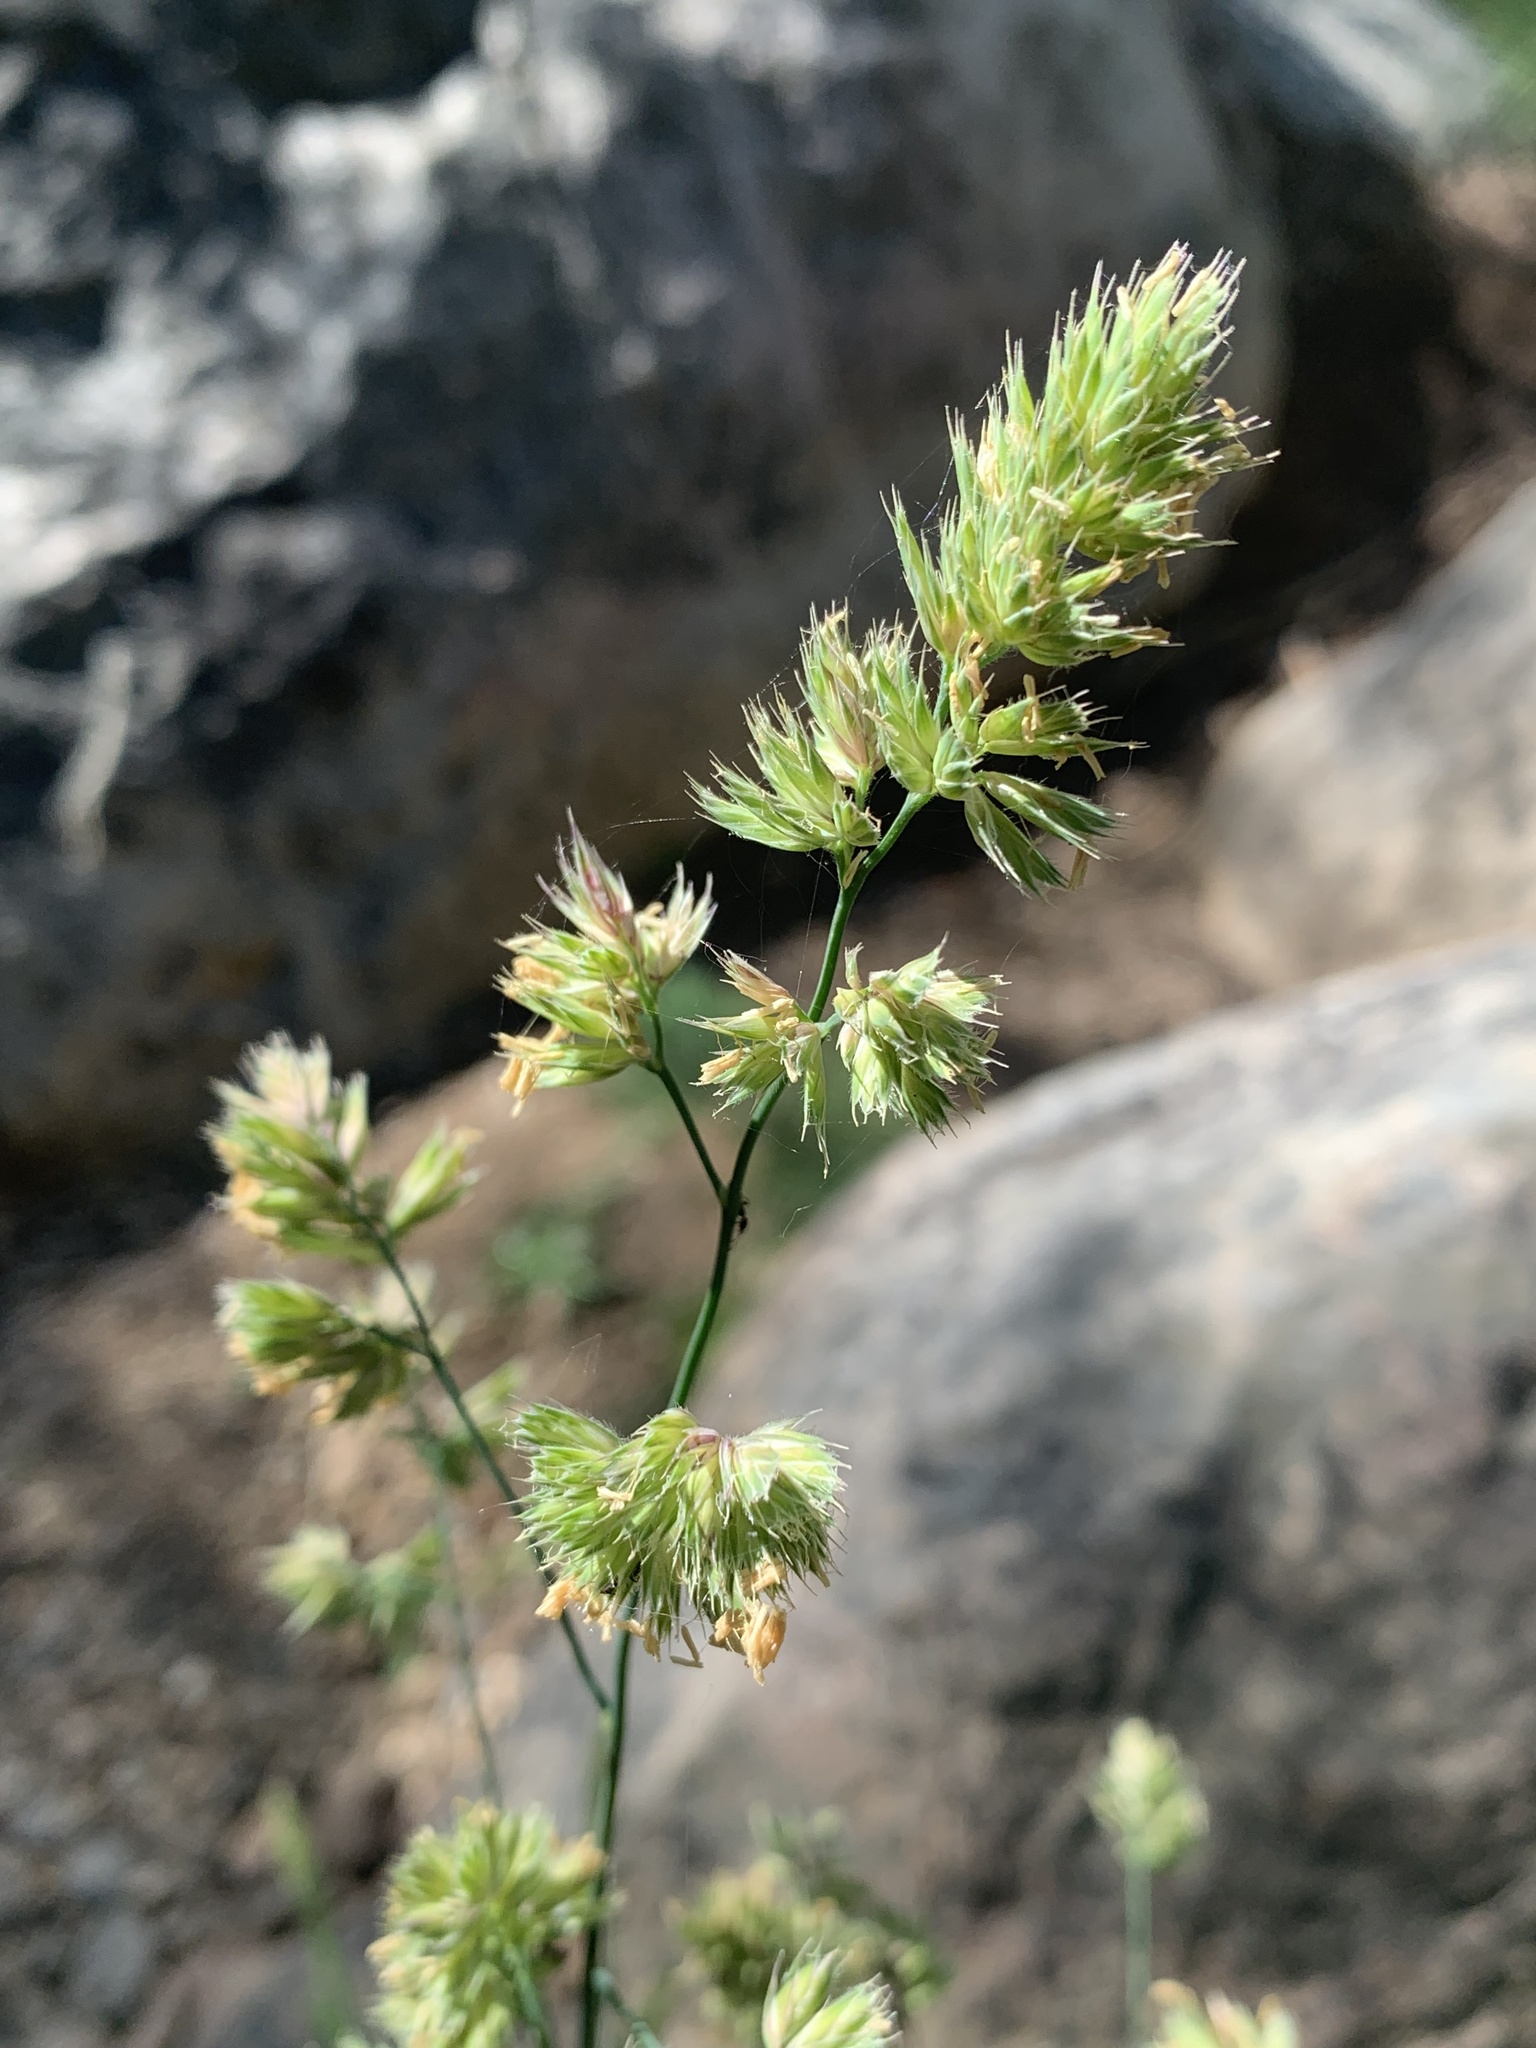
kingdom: Plantae
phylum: Tracheophyta
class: Liliopsida
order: Poales
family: Poaceae
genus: Dactylis
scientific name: Dactylis glomerata
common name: Orchardgrass
